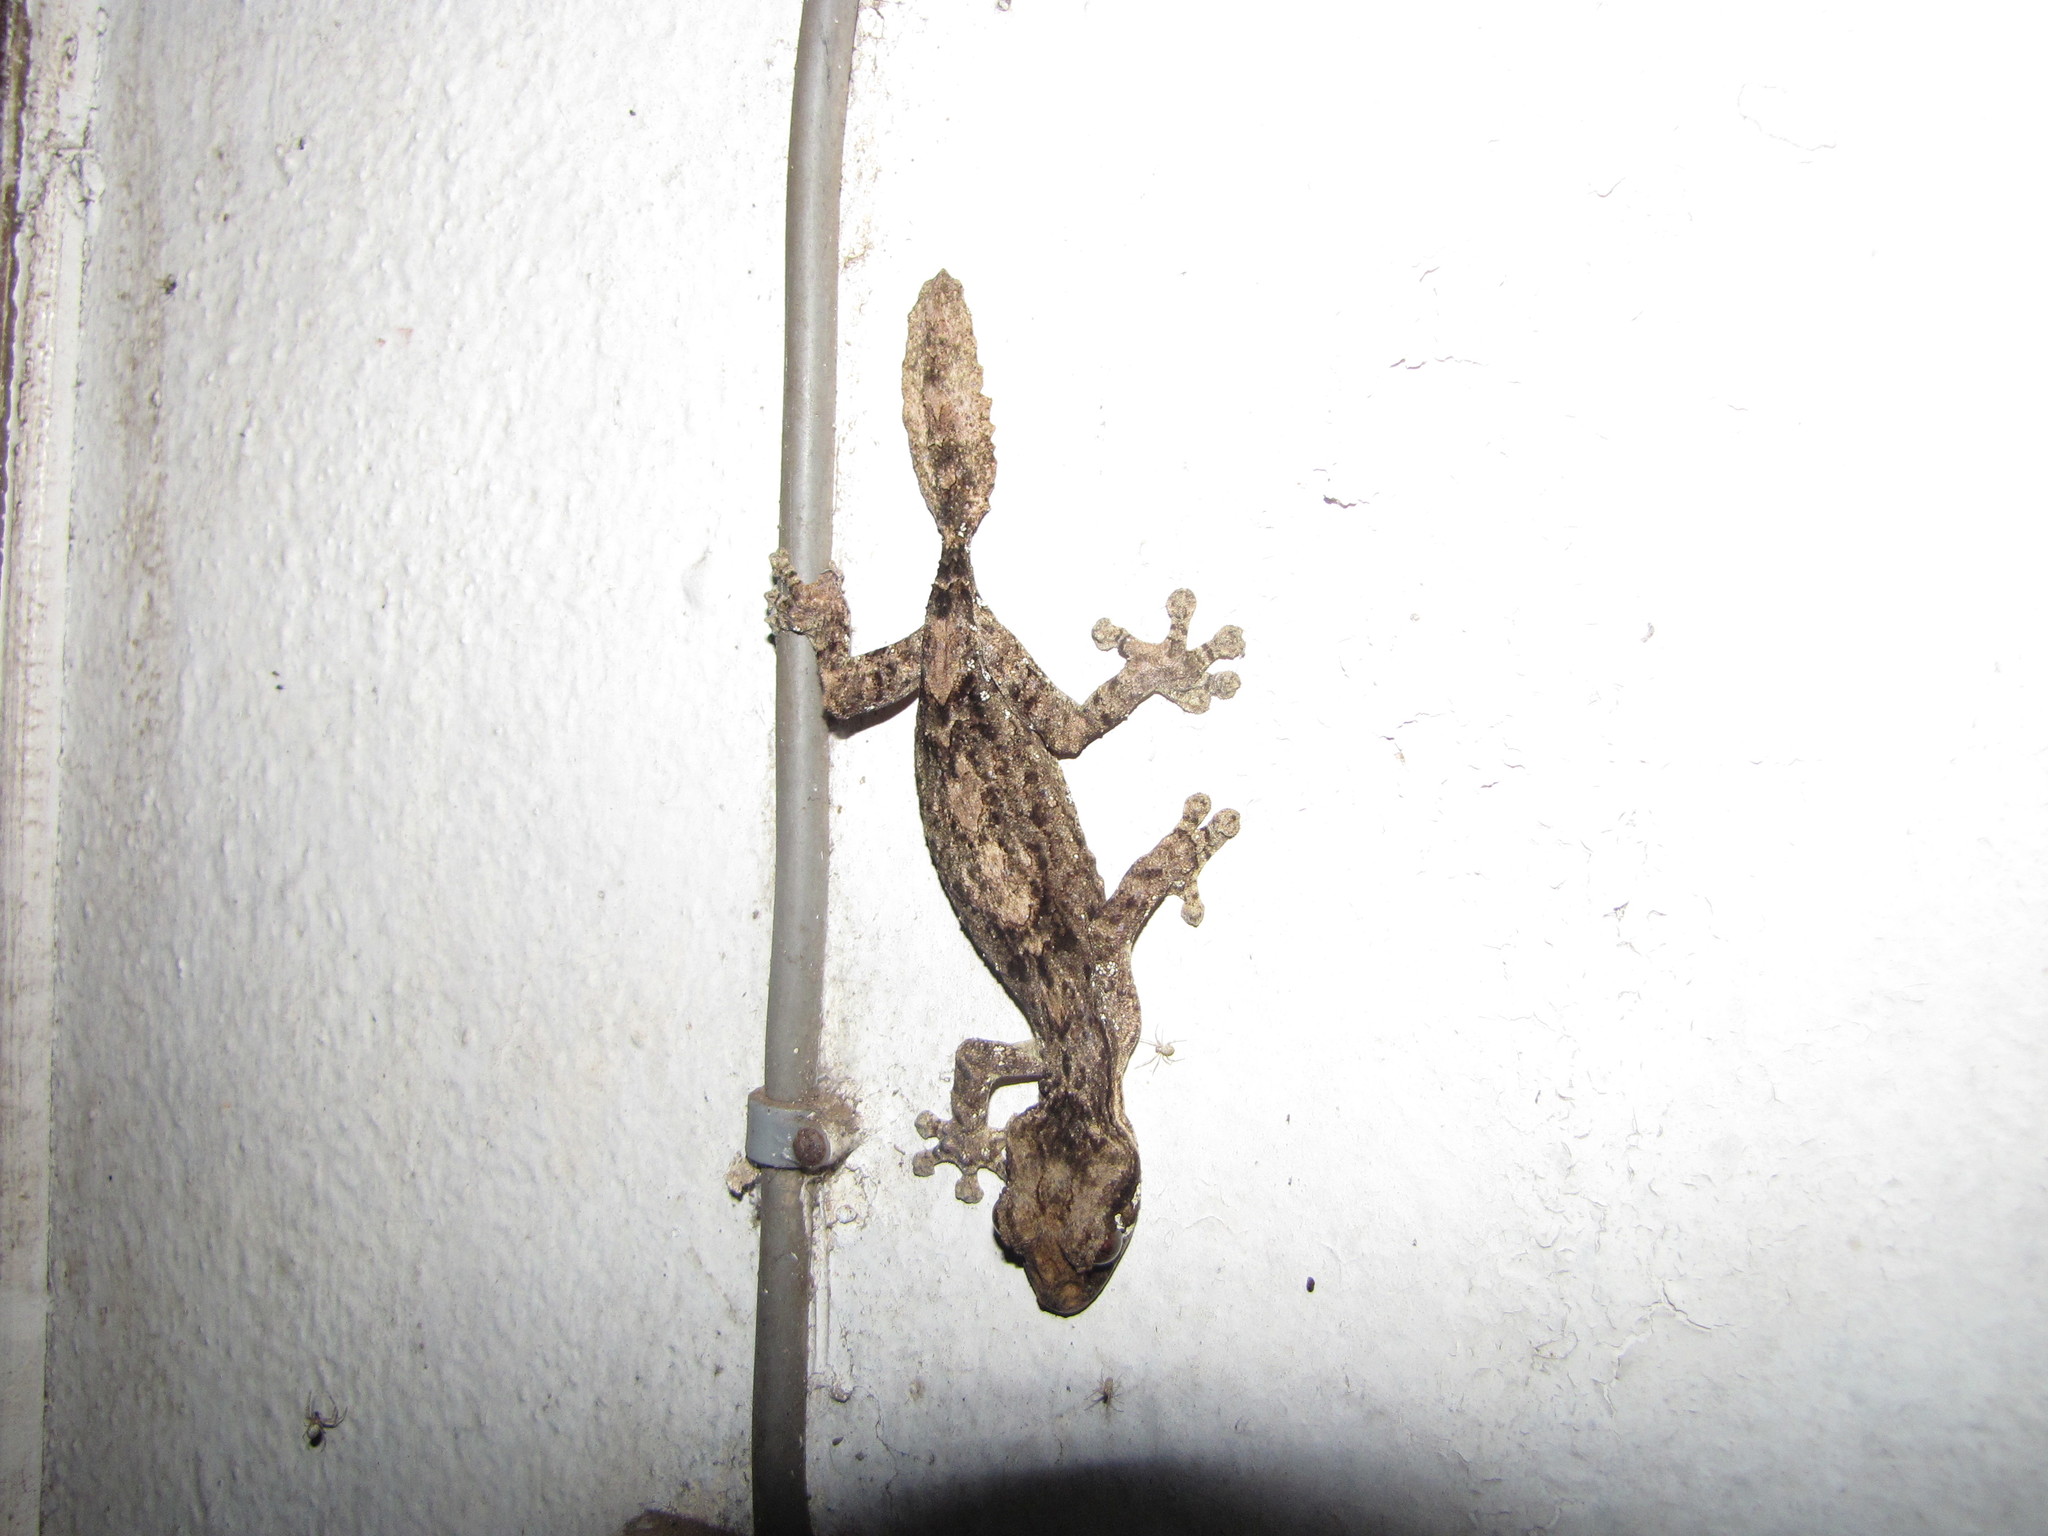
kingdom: Animalia
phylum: Chordata
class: Squamata
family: Gekkonidae
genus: Uroplatus
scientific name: Uroplatus alluaudi
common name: Northern flat-tail gecko
